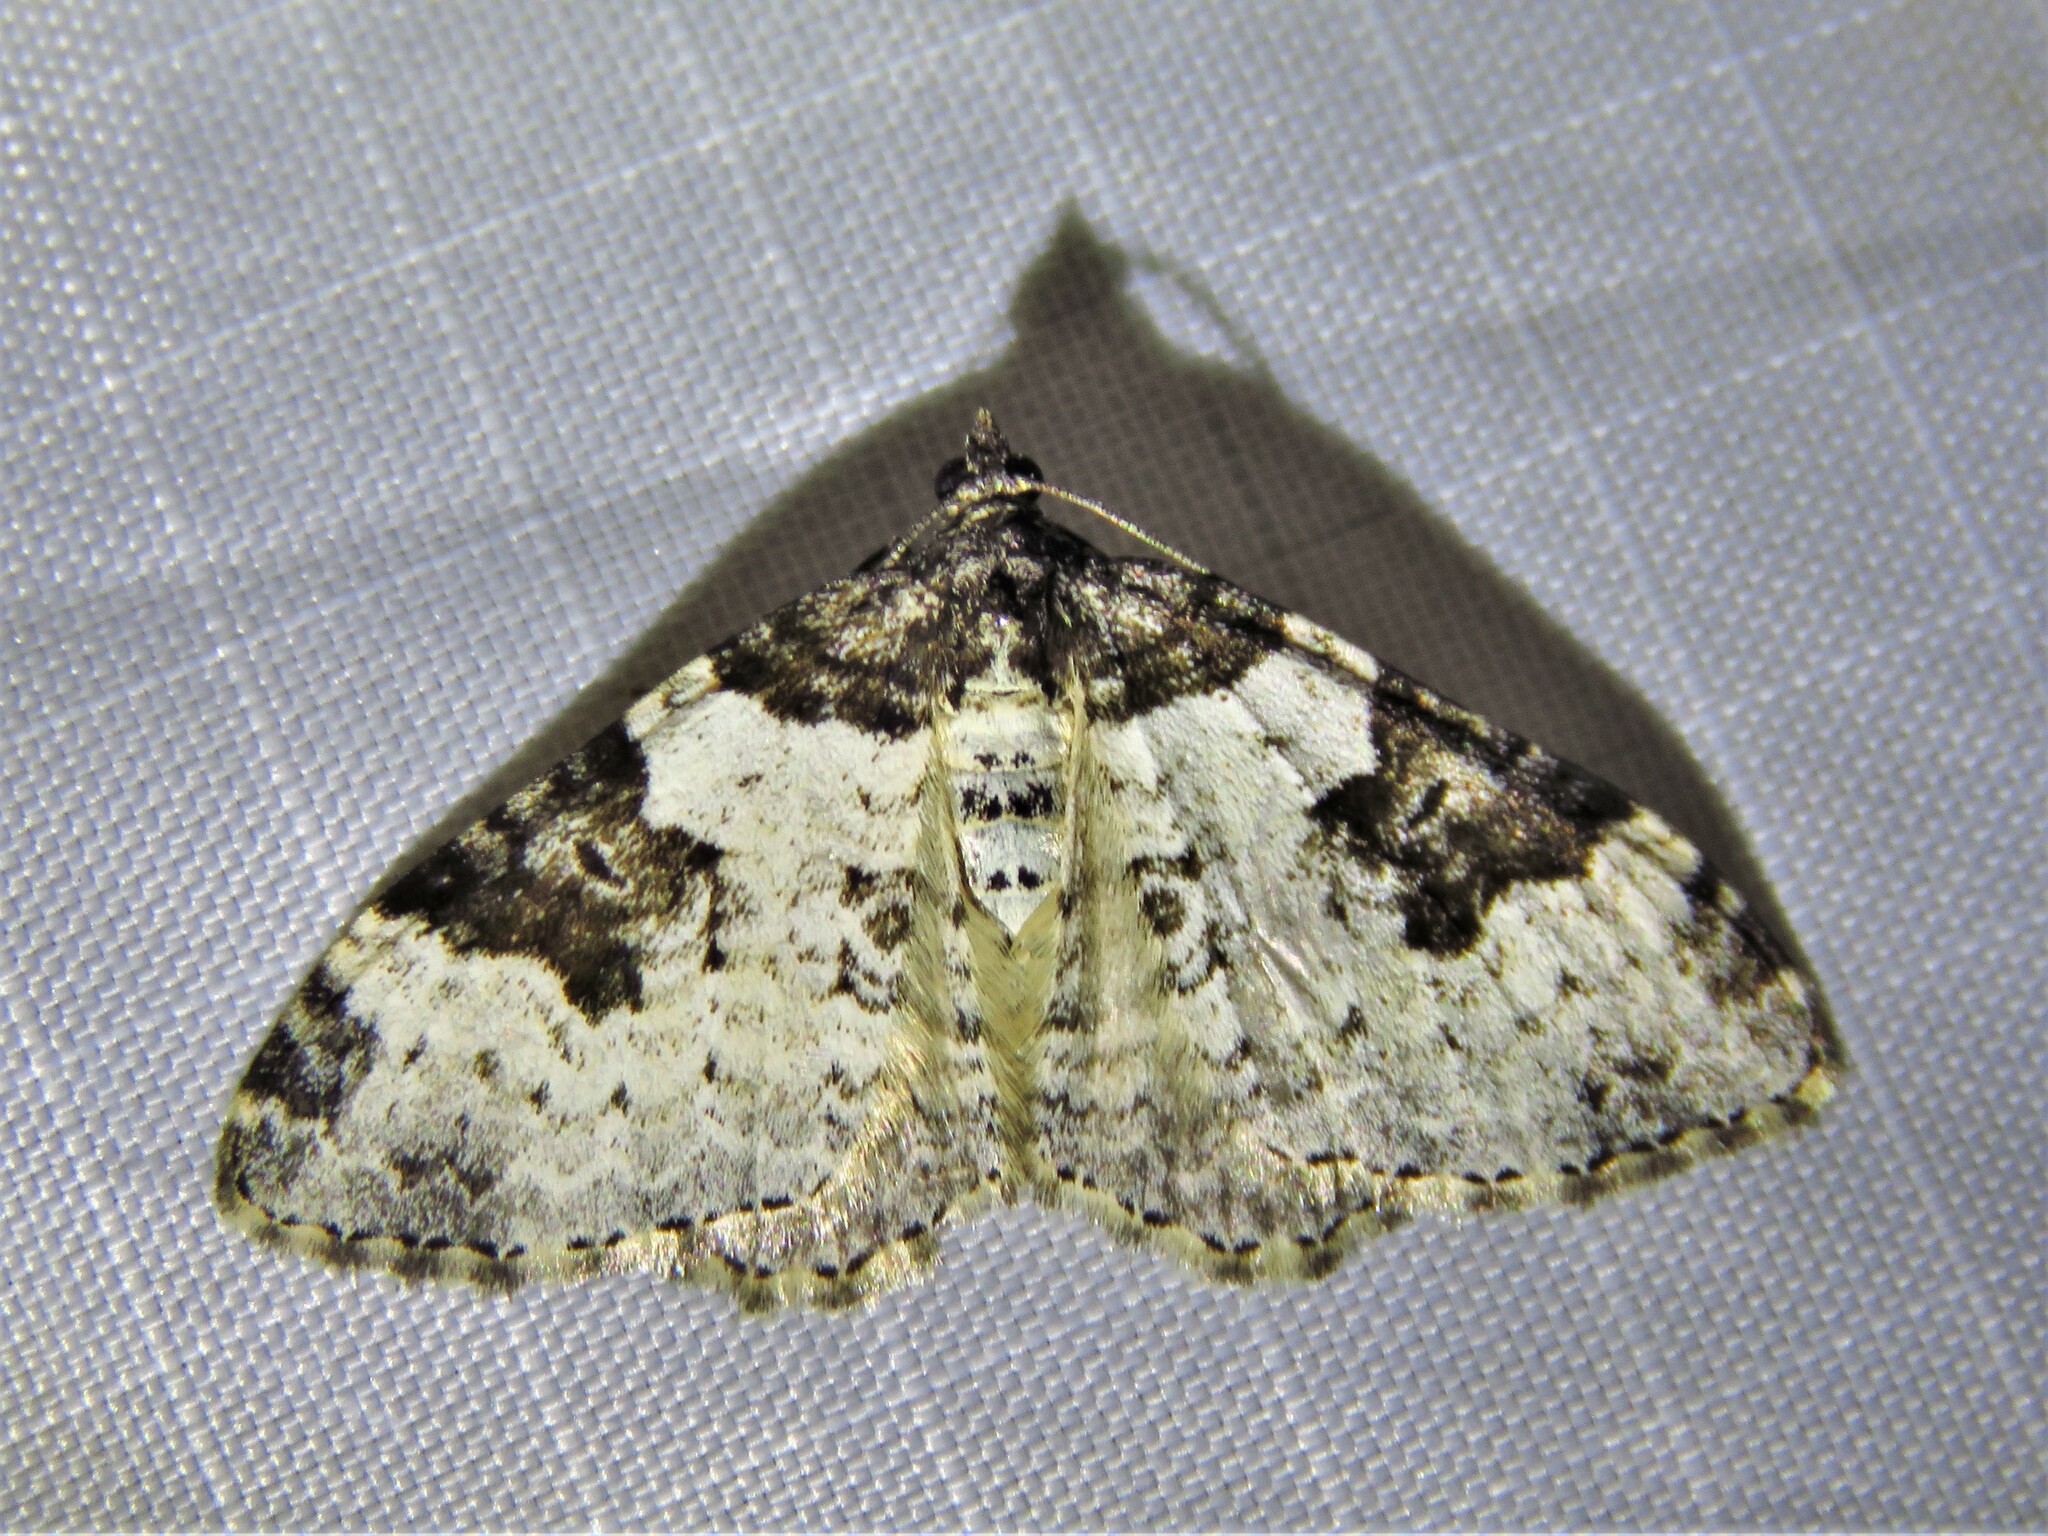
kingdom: Animalia
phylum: Arthropoda
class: Insecta
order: Lepidoptera
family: Geometridae
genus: Xanthorhoe
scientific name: Xanthorhoe fluctuata
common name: Garden carpet
